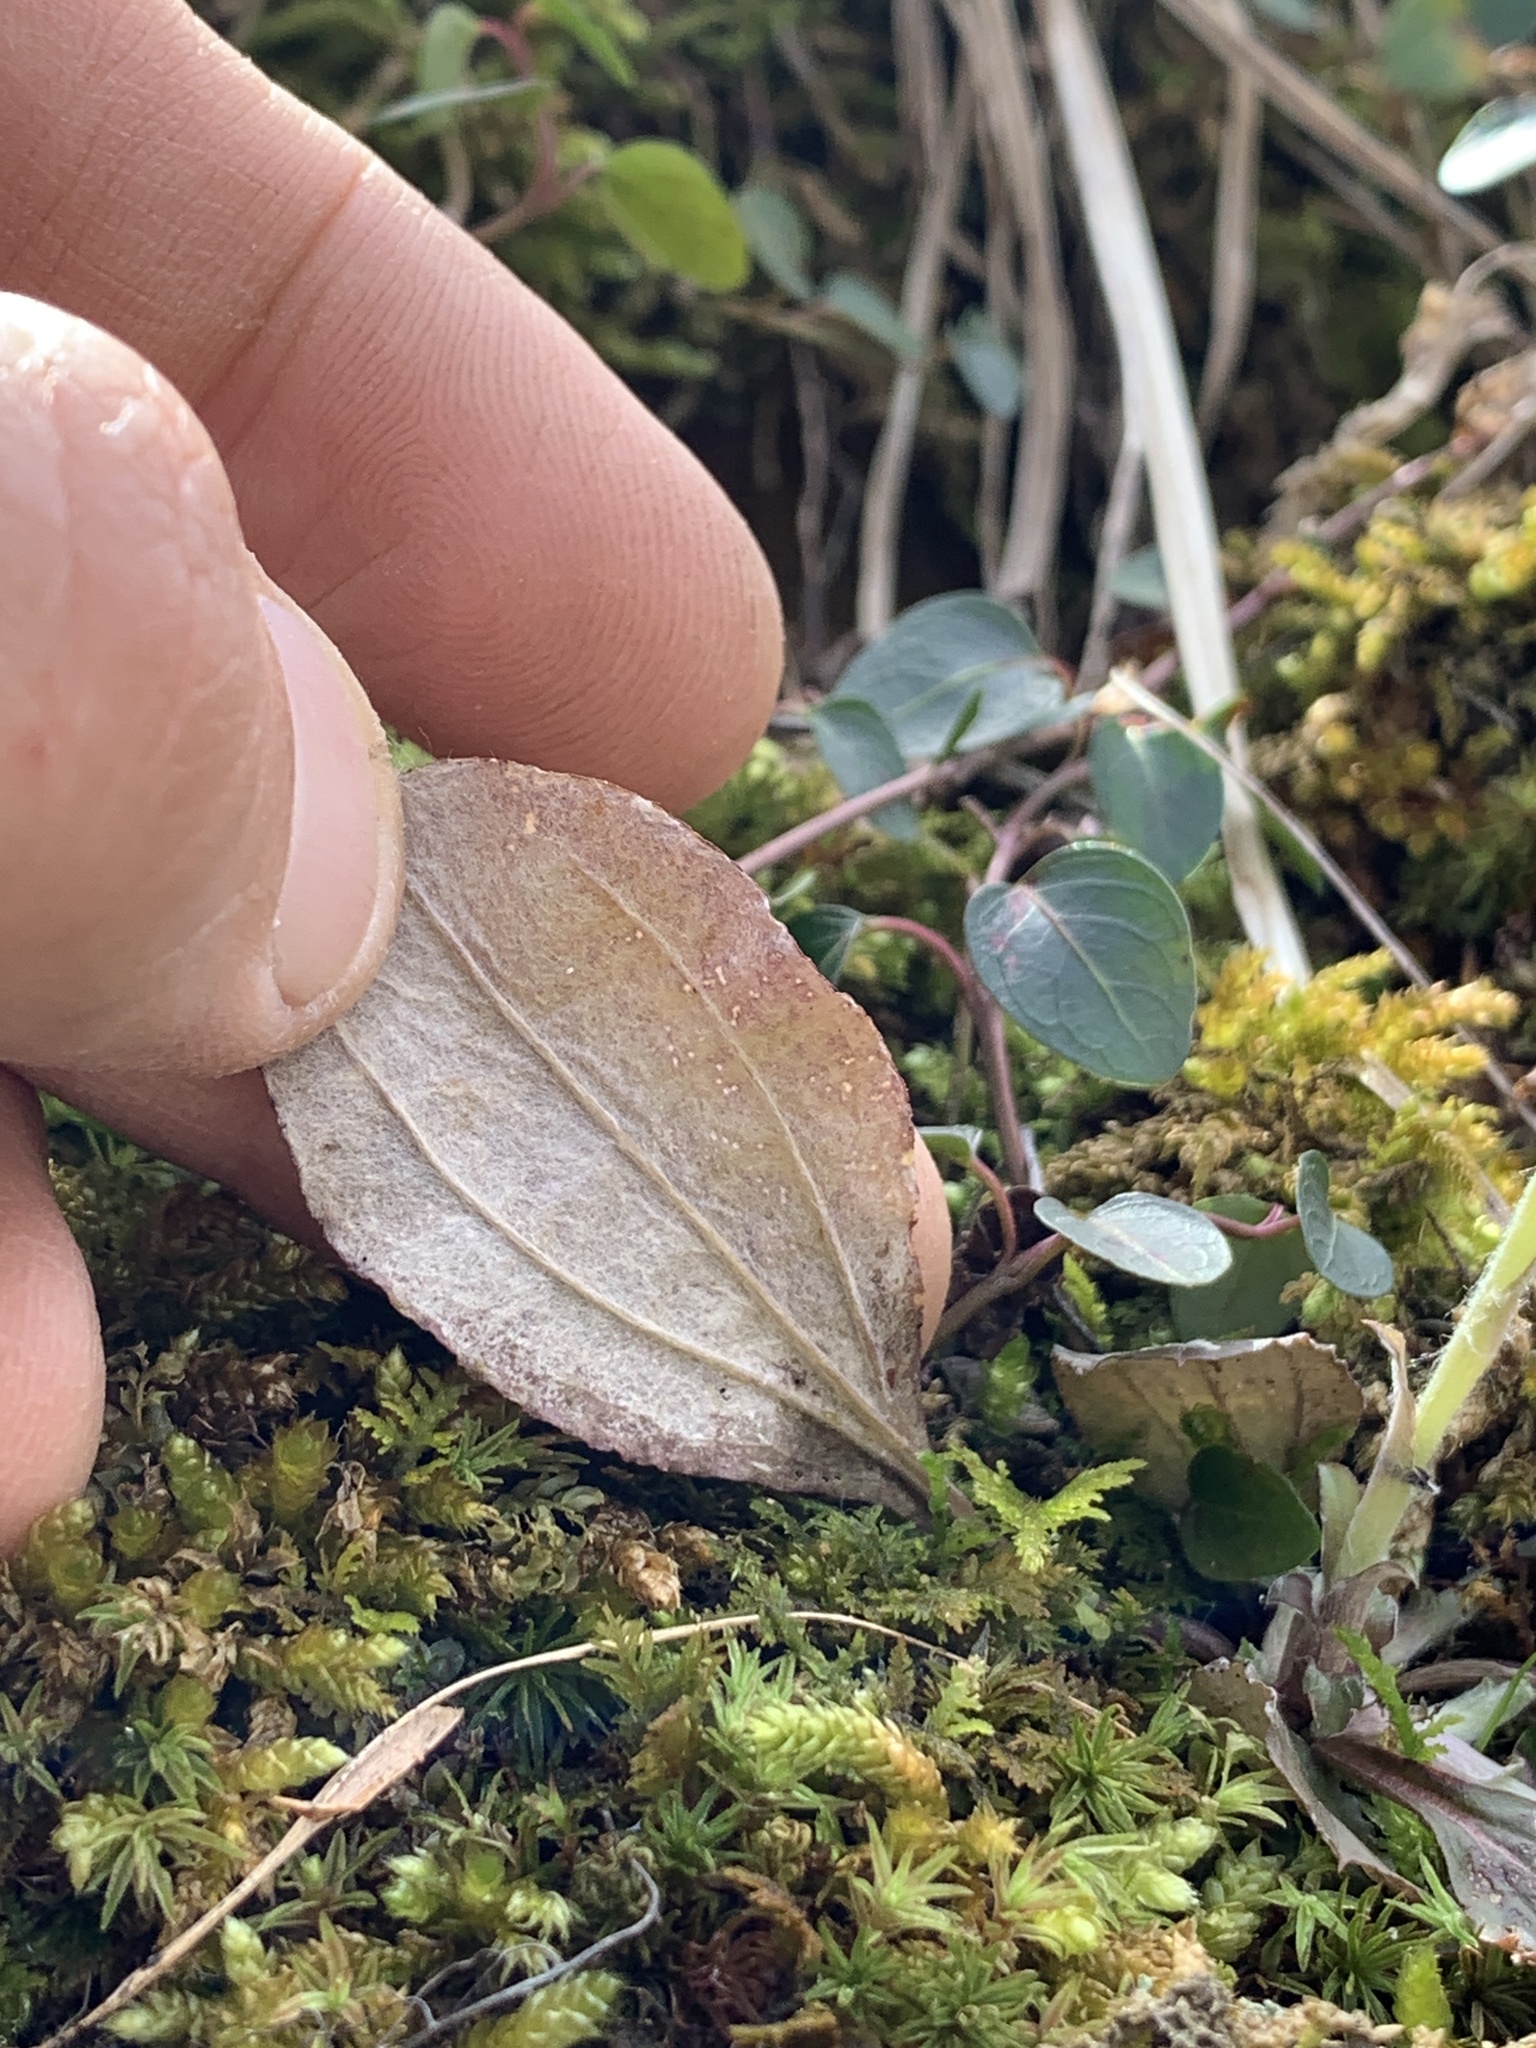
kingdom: Plantae
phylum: Tracheophyta
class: Magnoliopsida
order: Asterales
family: Asteraceae
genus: Antennaria
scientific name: Antennaria solitaria
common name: Single-head pussytoes
